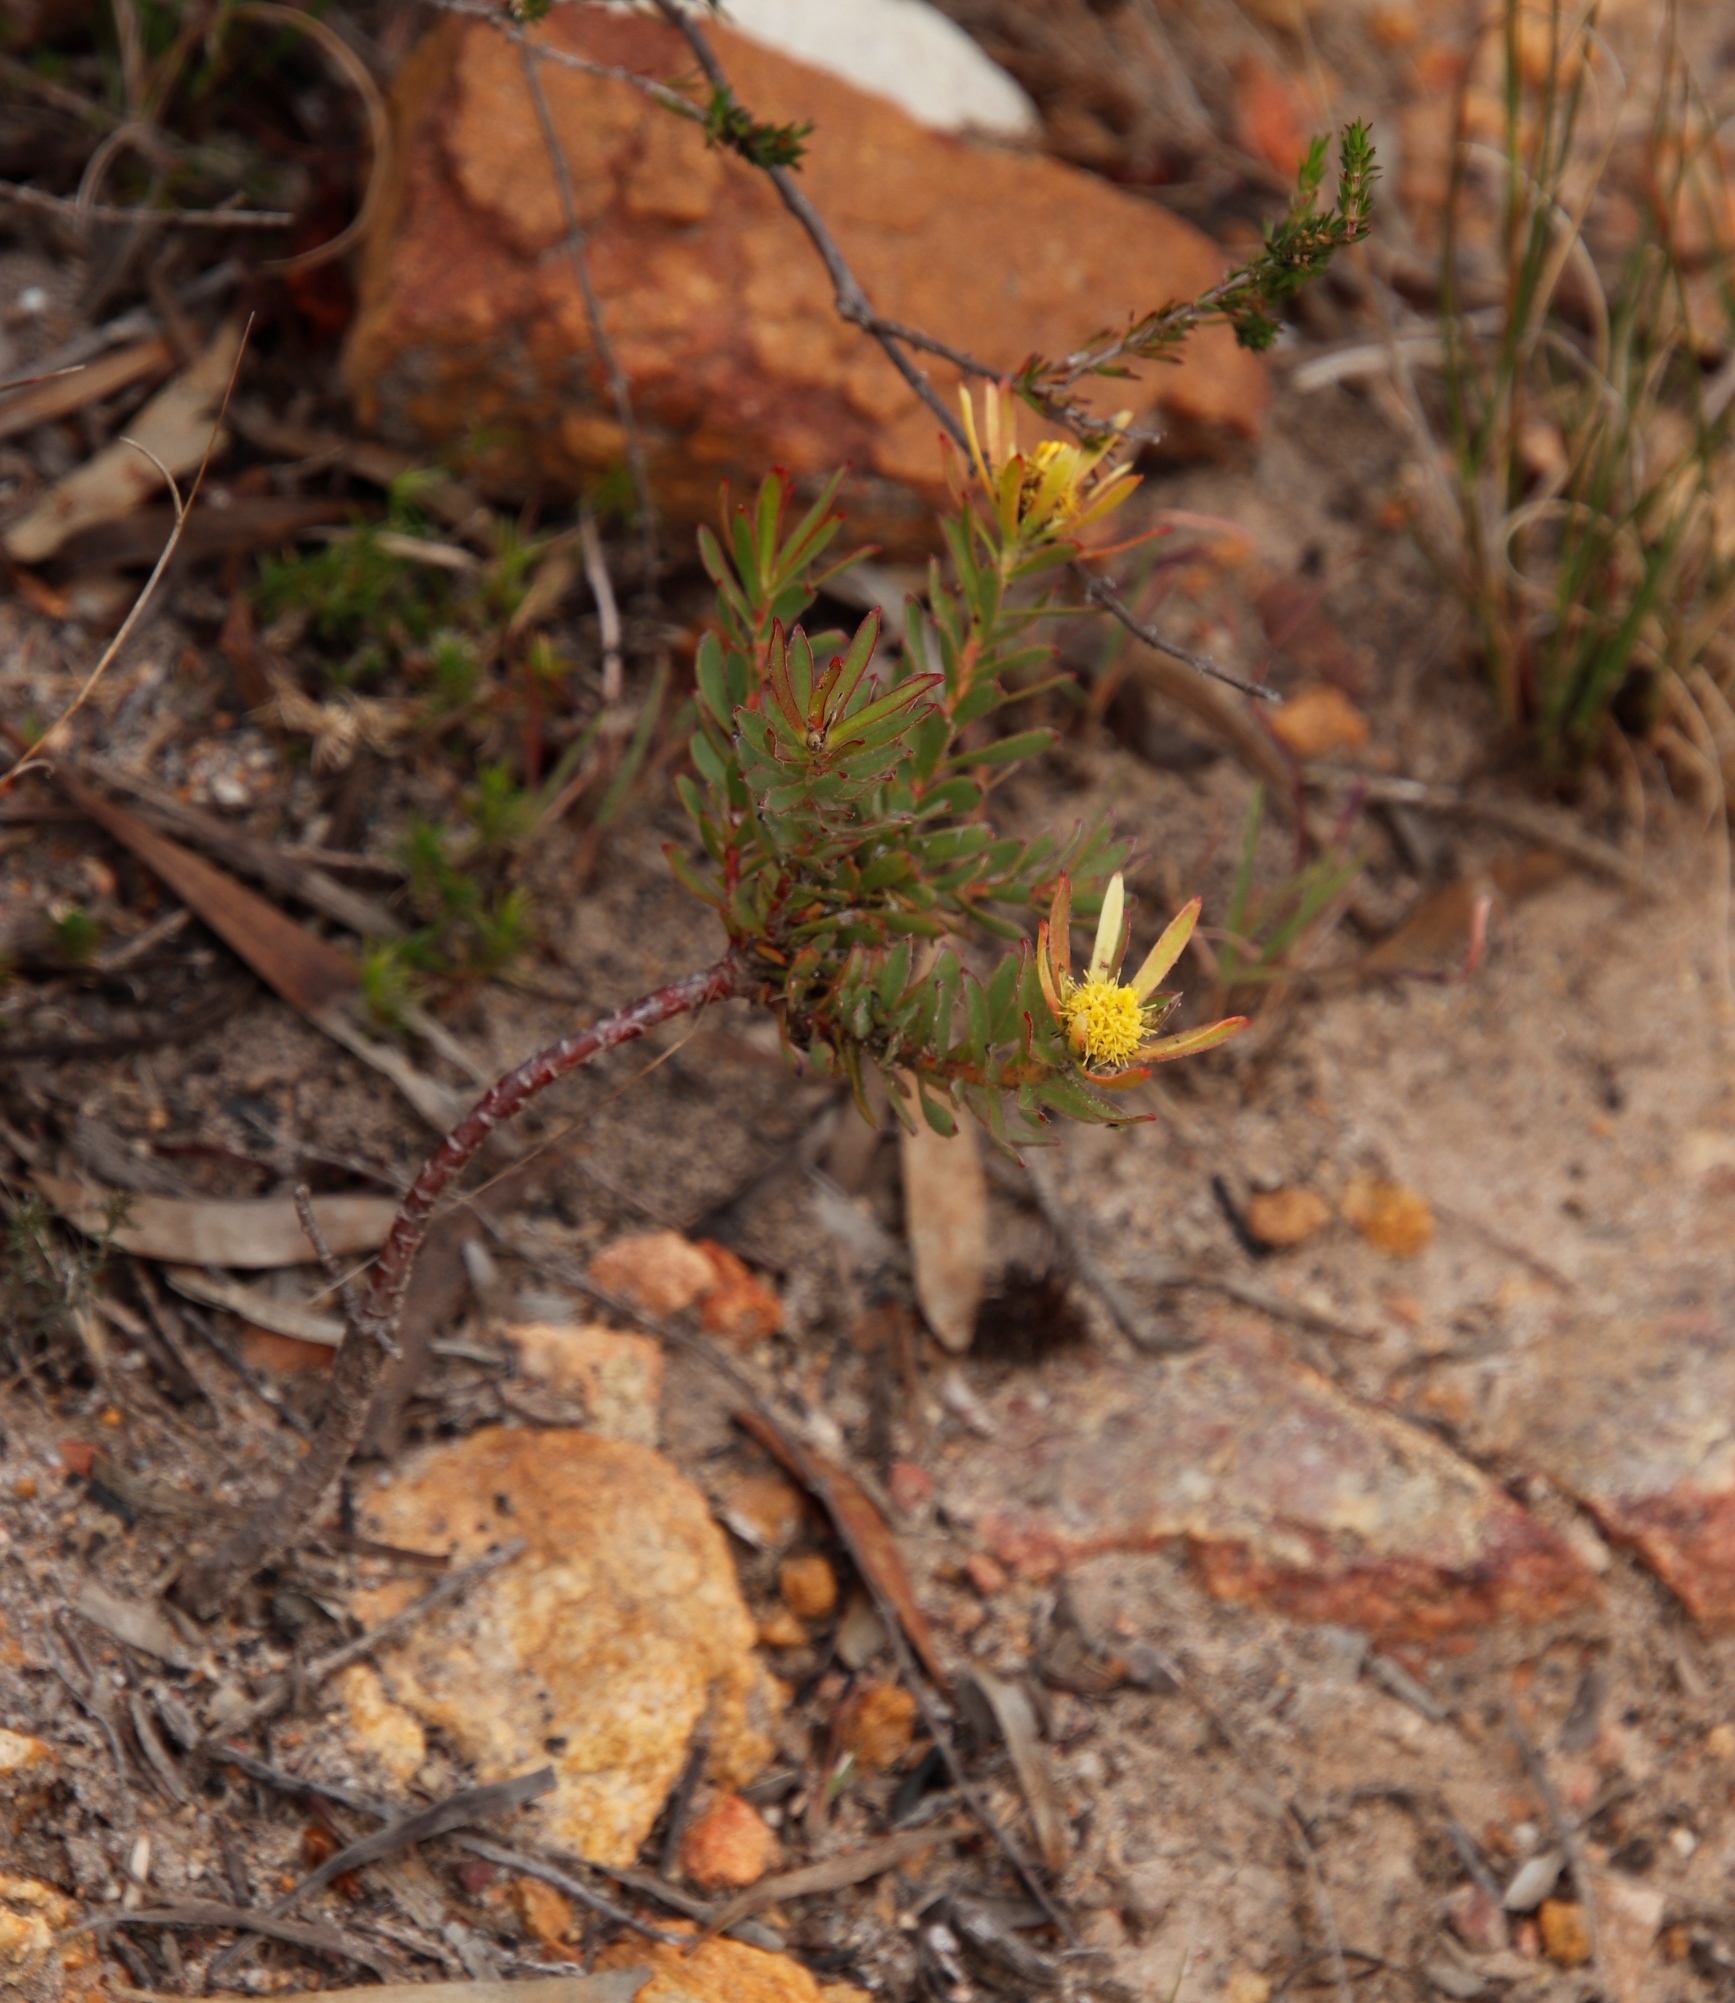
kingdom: Plantae
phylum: Tracheophyta
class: Magnoliopsida
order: Proteales
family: Proteaceae
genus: Leucadendron
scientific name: Leucadendron modestum
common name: Rough-leaf conebush
